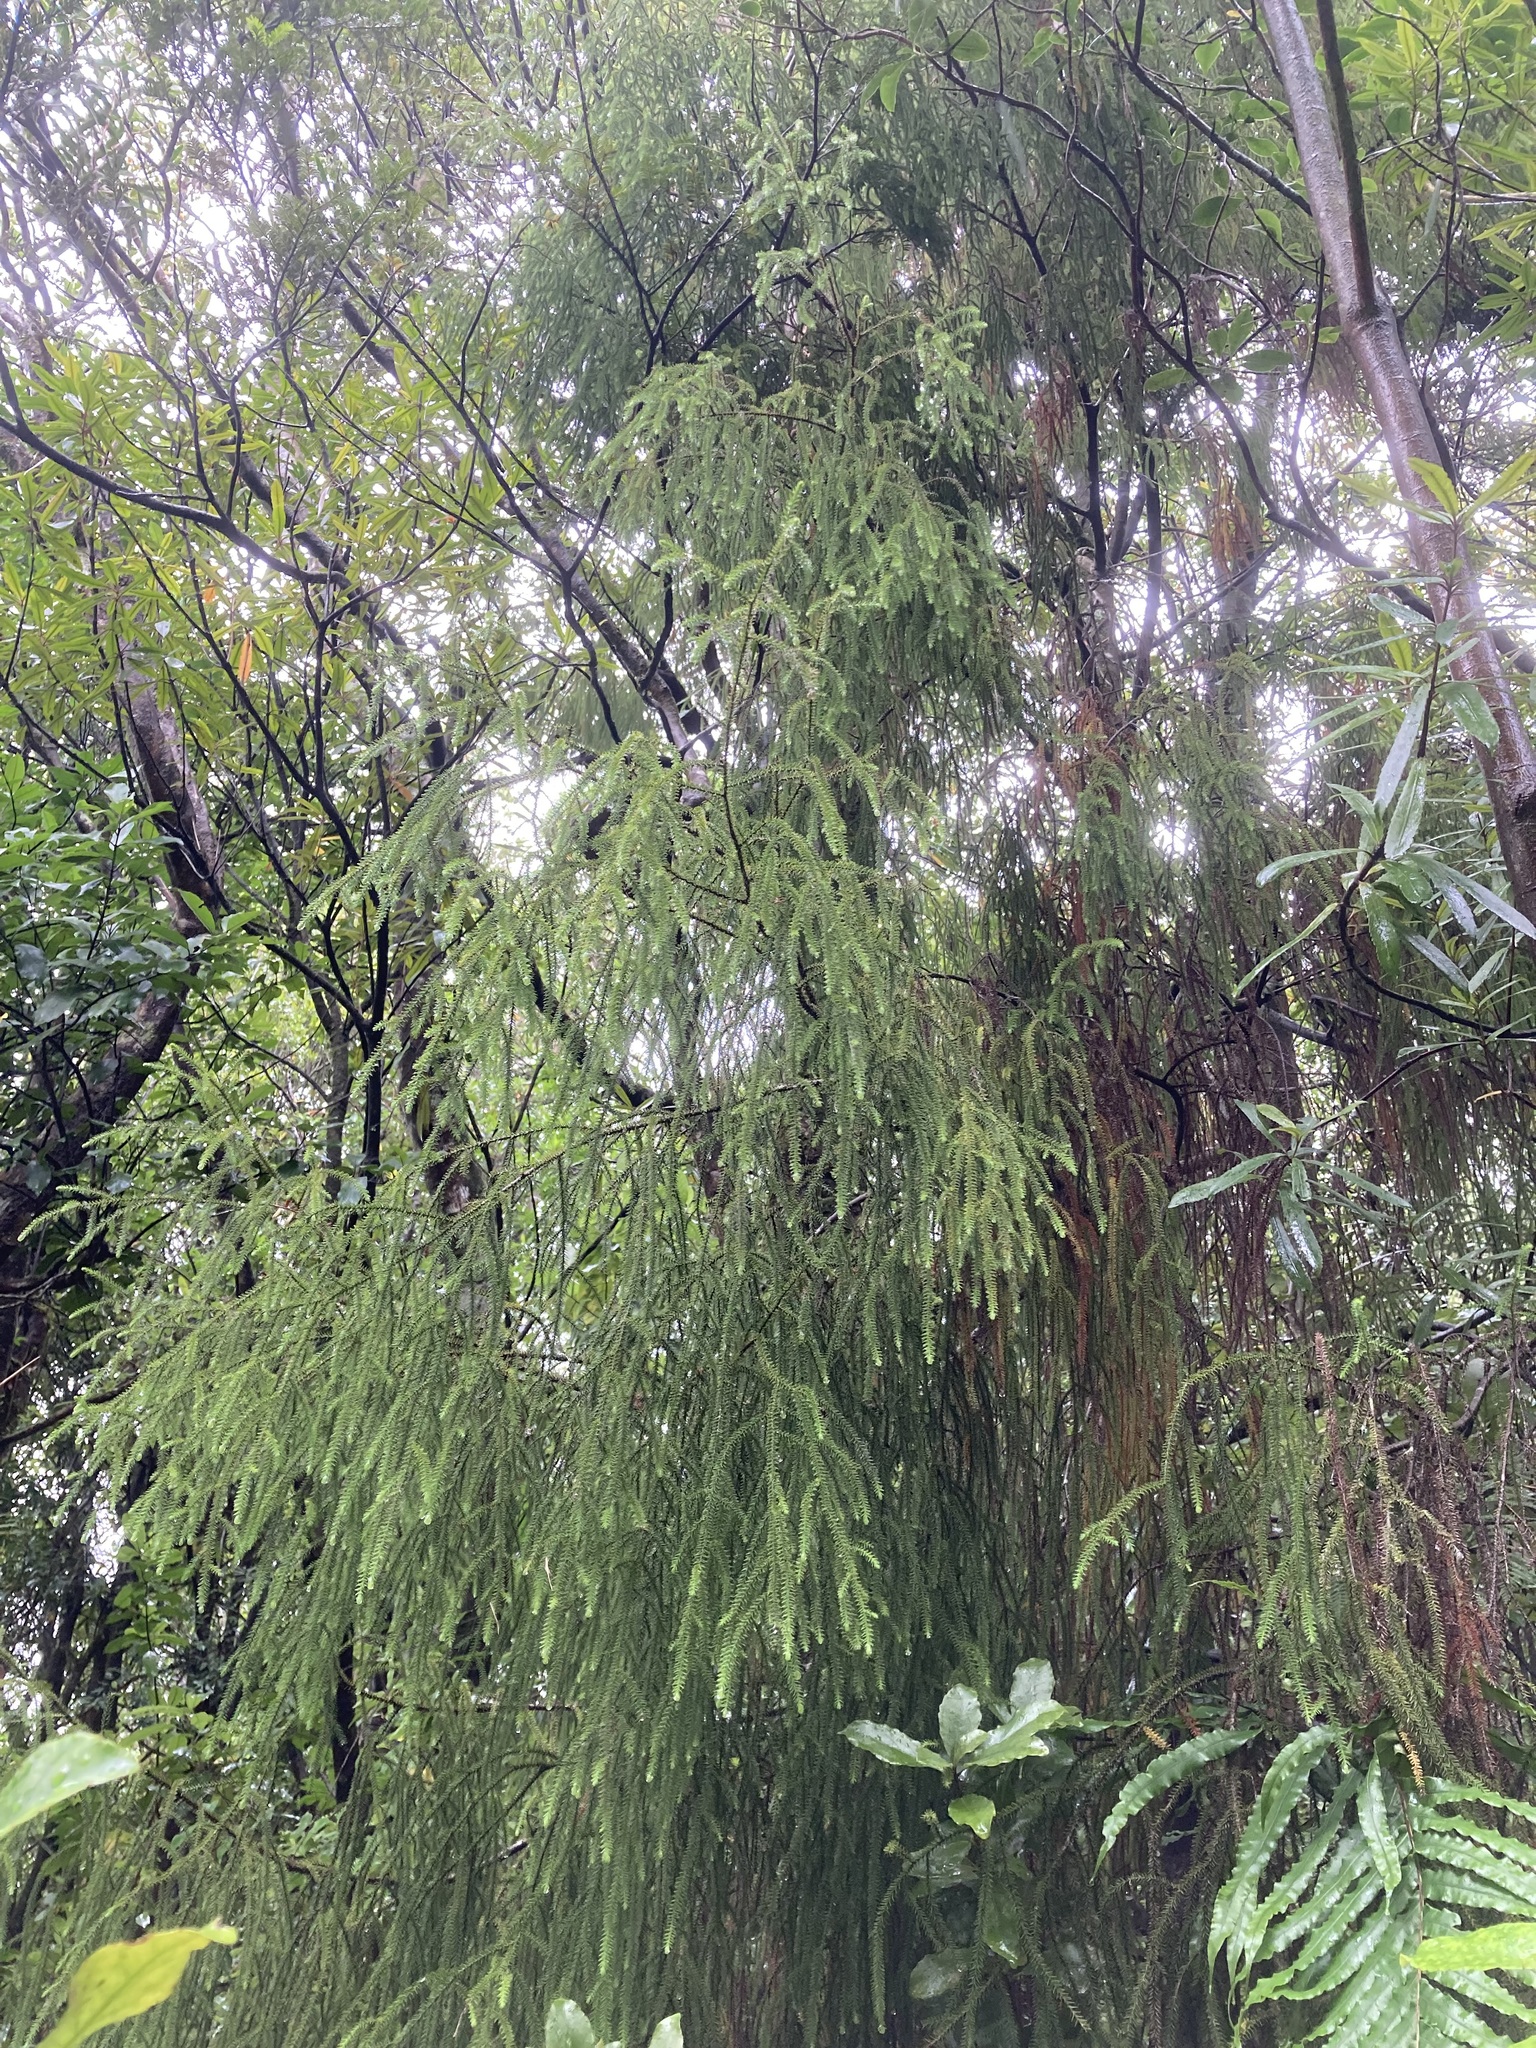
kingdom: Plantae
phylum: Tracheophyta
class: Pinopsida
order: Pinales
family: Podocarpaceae
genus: Dacrydium
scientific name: Dacrydium cupressinum
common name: Red pine
